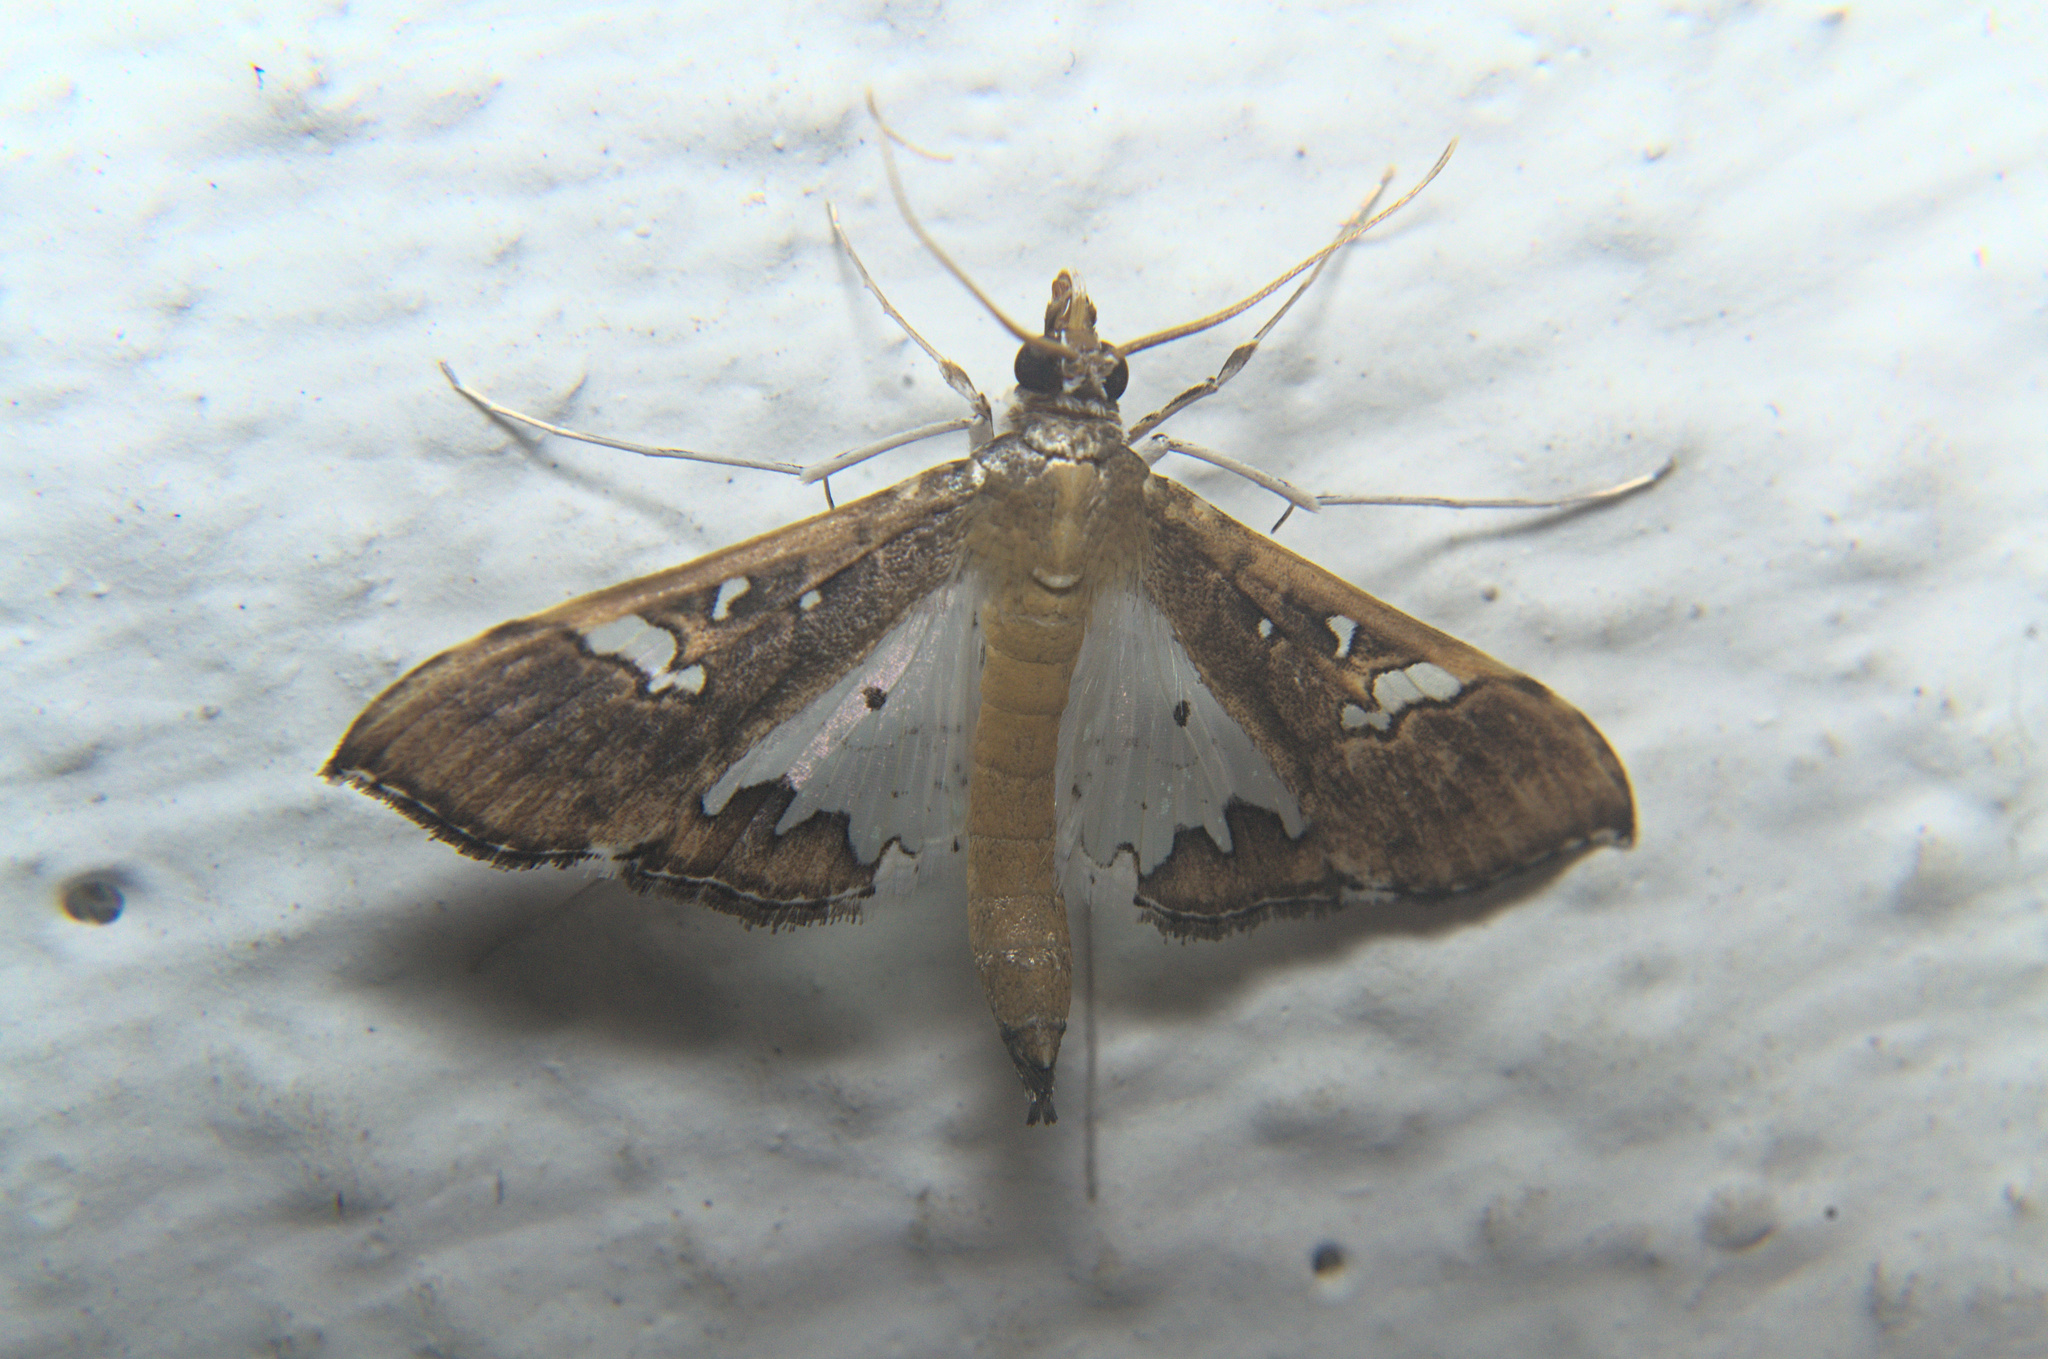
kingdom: Animalia
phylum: Arthropoda
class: Insecta
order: Lepidoptera
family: Crambidae
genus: Maruca
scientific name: Maruca vitrata
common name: Maruca pod borer
